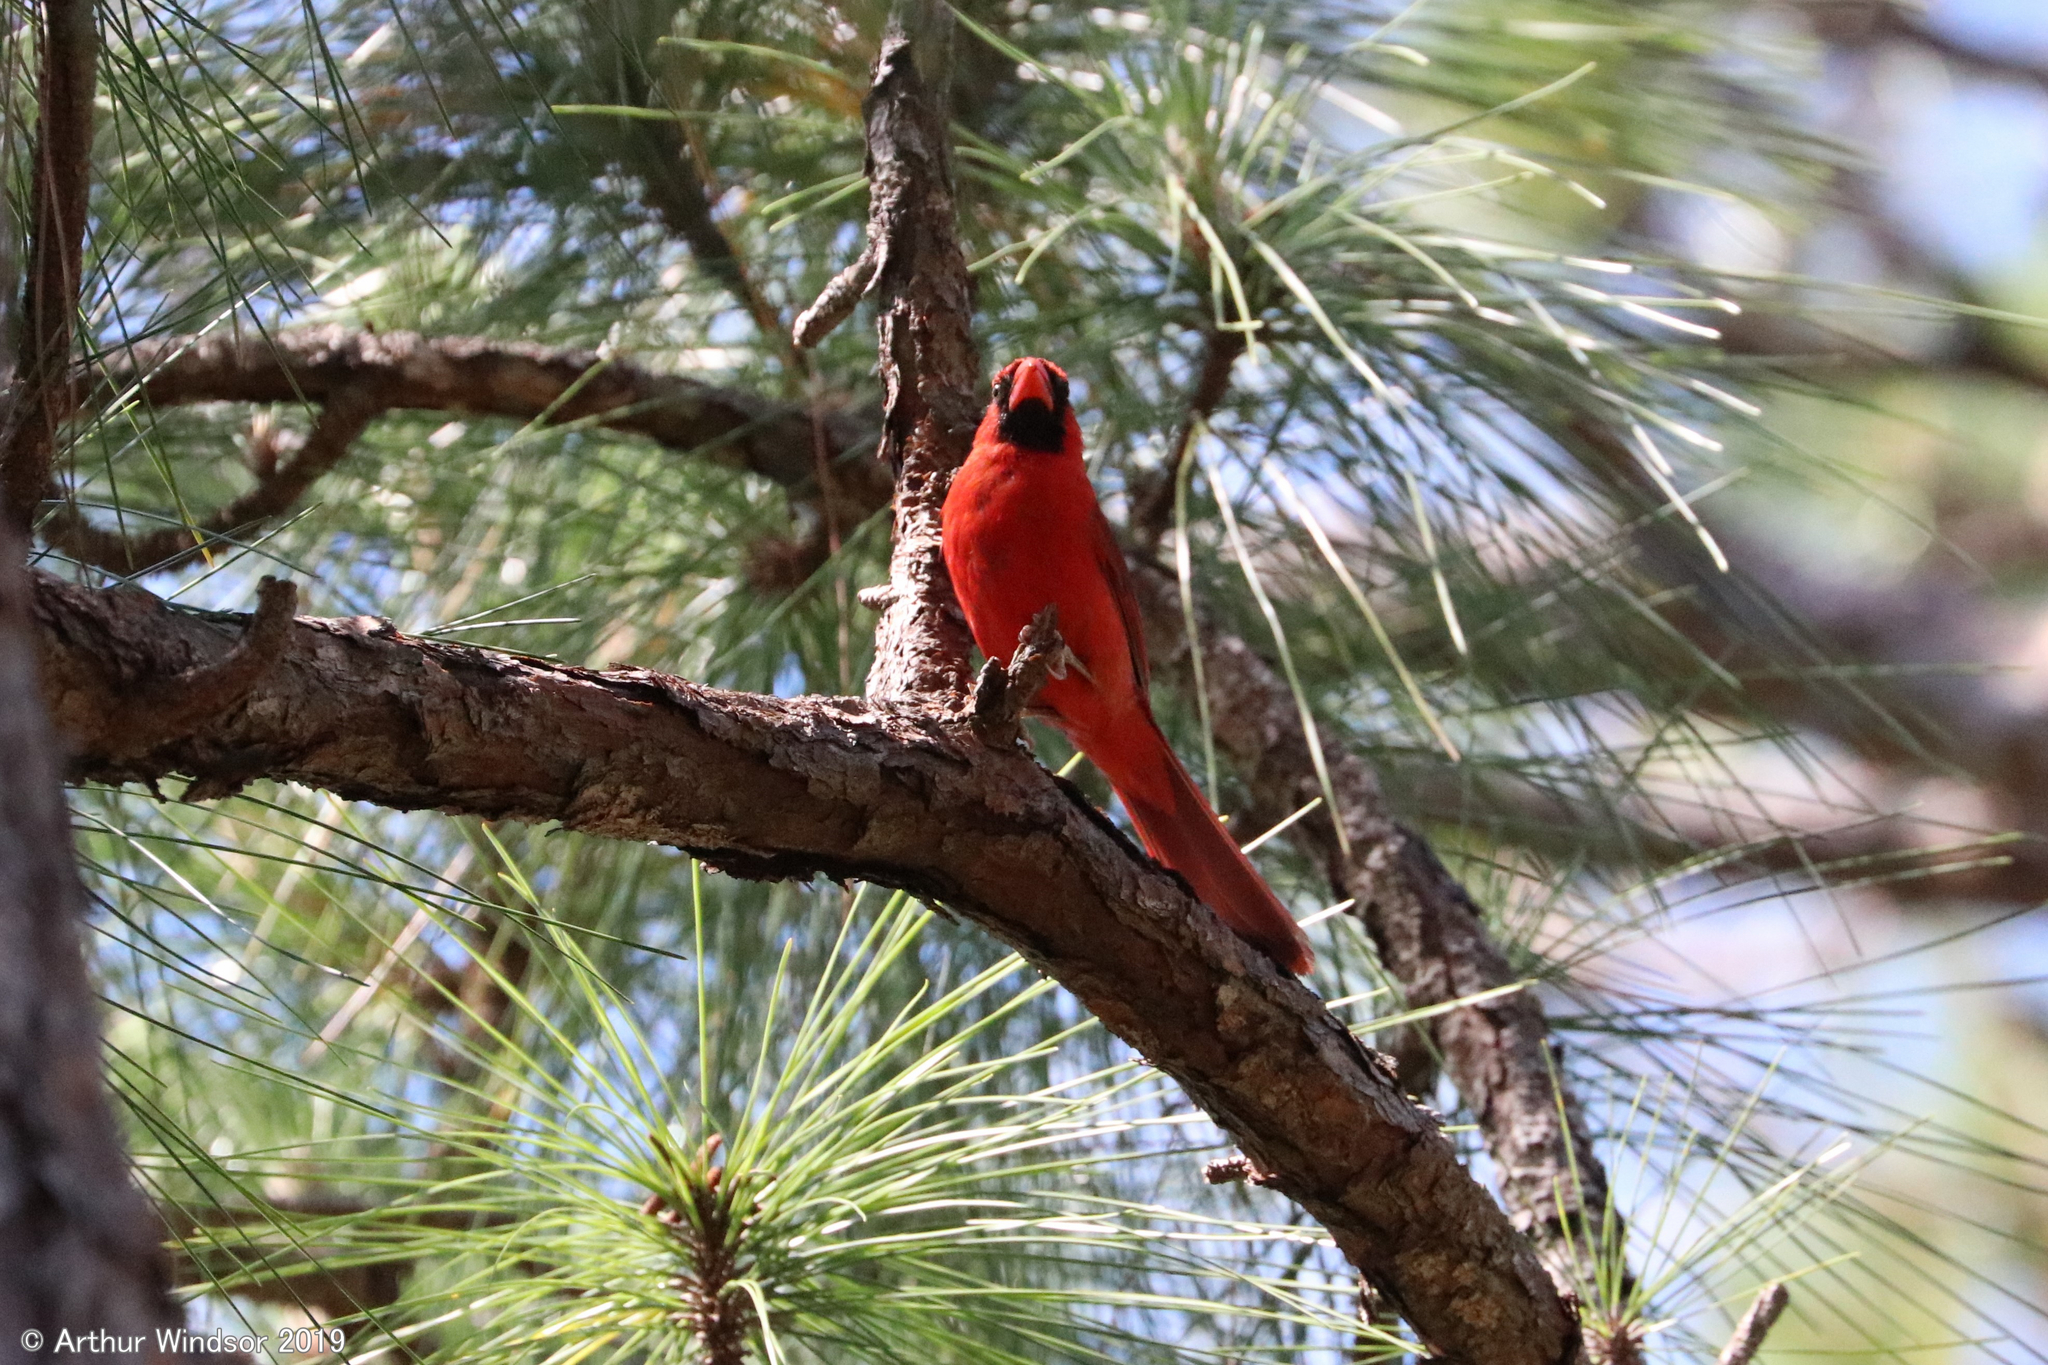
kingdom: Animalia
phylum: Chordata
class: Aves
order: Passeriformes
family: Cardinalidae
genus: Cardinalis
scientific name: Cardinalis cardinalis
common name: Northern cardinal
